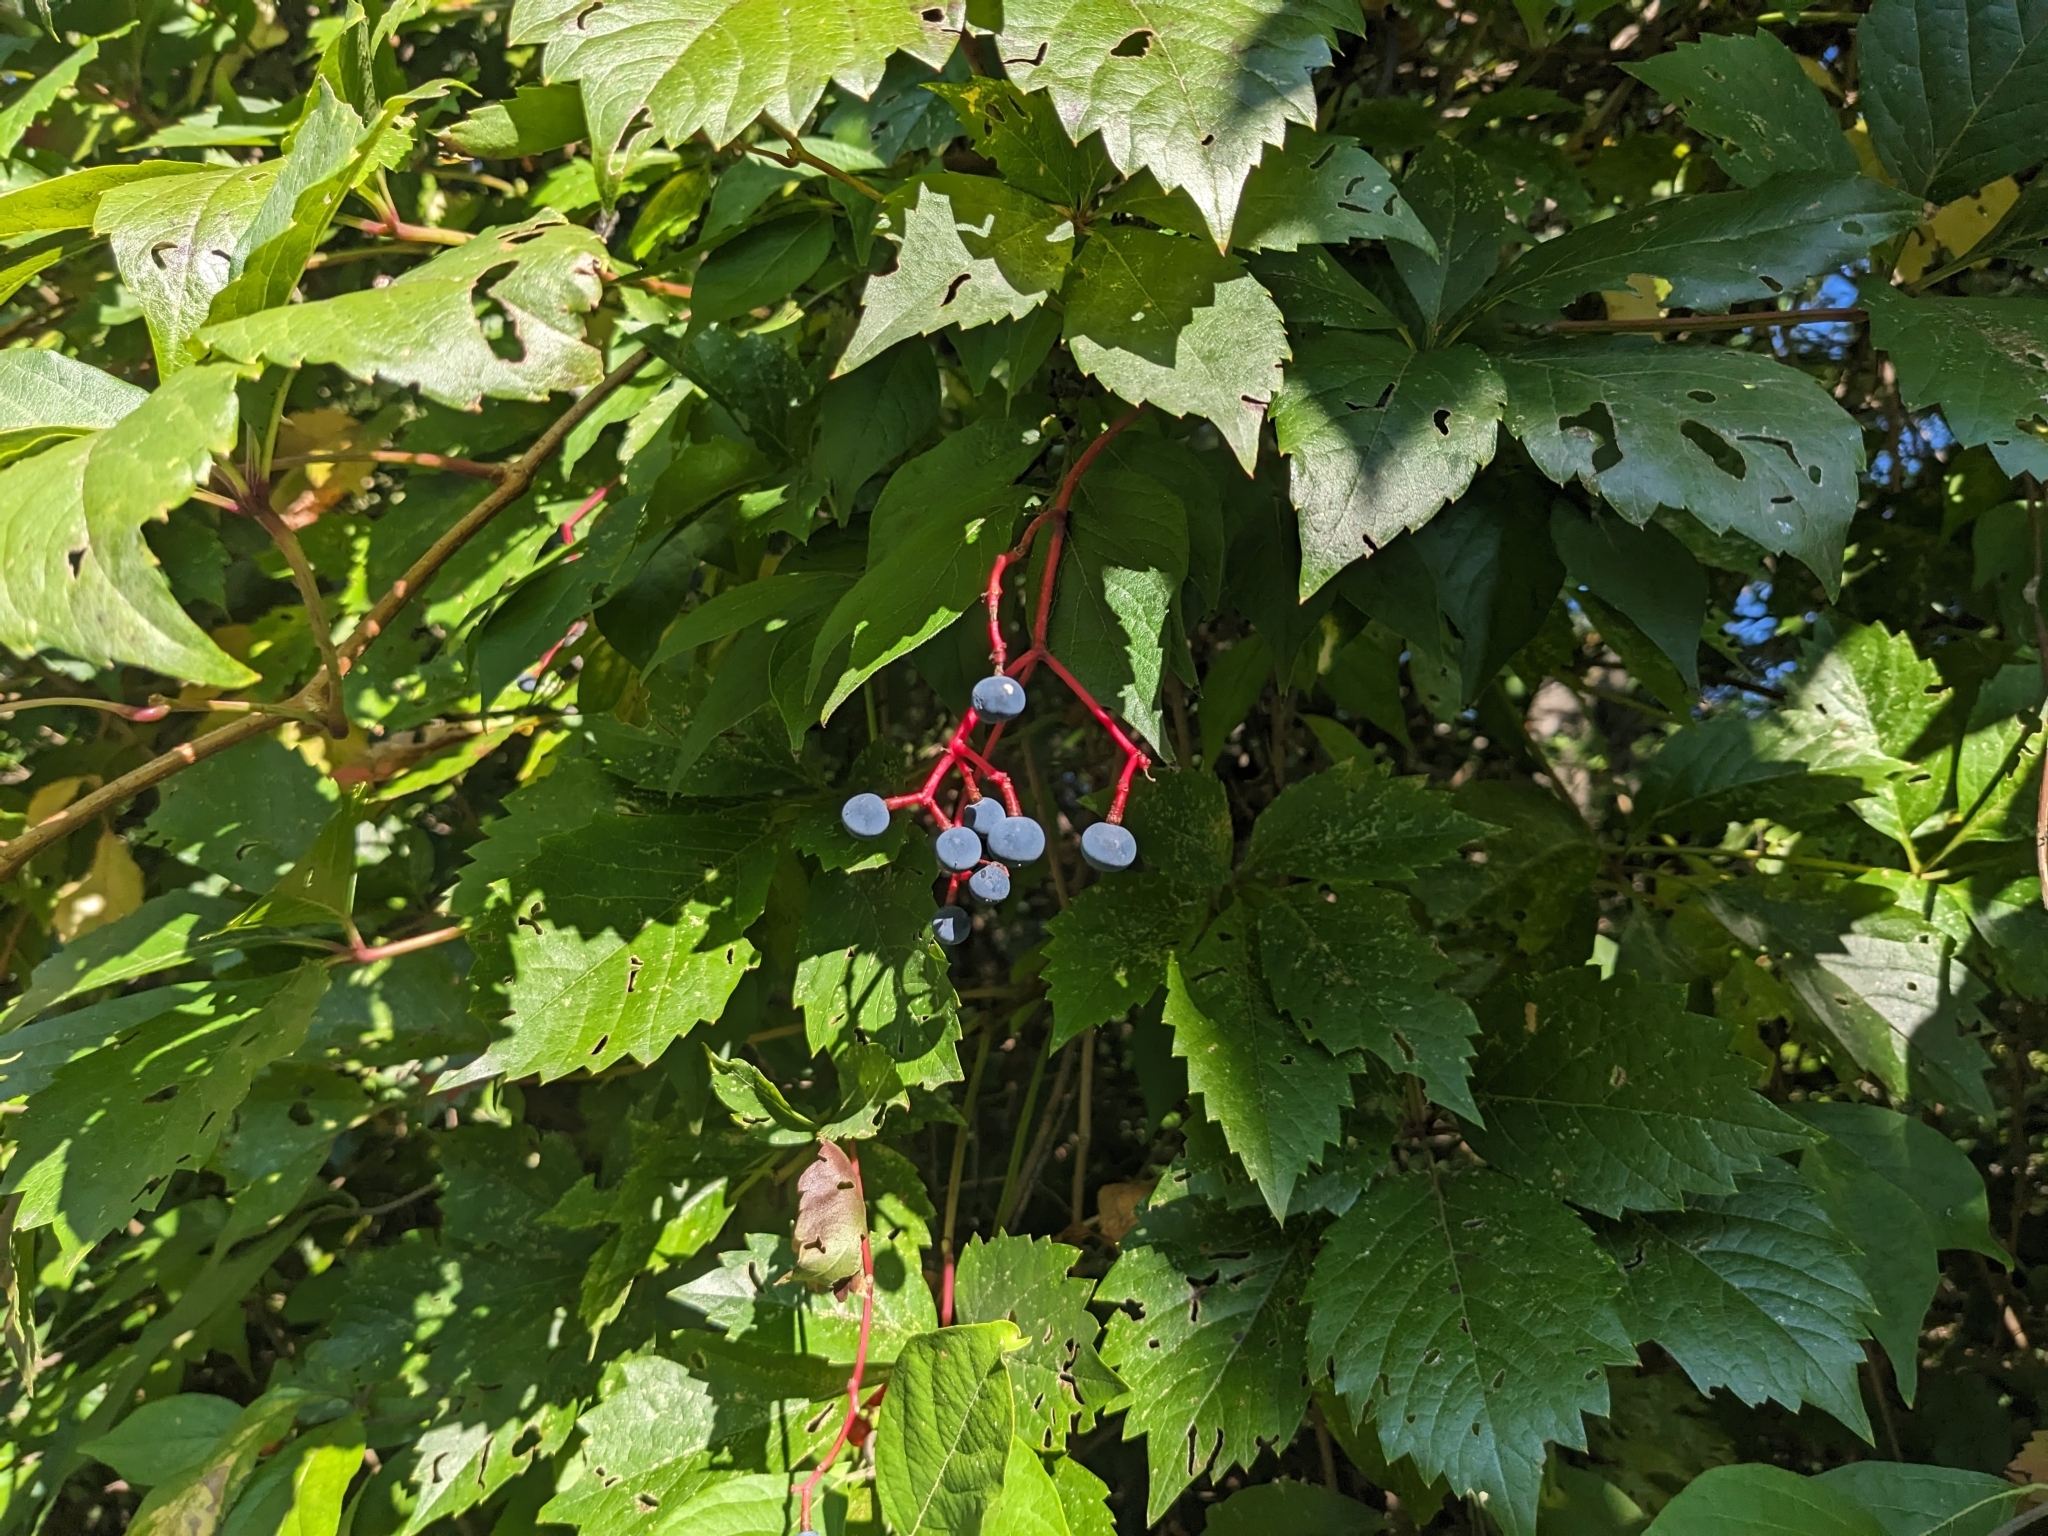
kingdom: Plantae
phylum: Tracheophyta
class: Magnoliopsida
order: Vitales
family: Vitaceae
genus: Parthenocissus
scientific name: Parthenocissus inserta
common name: False virginia-creeper
